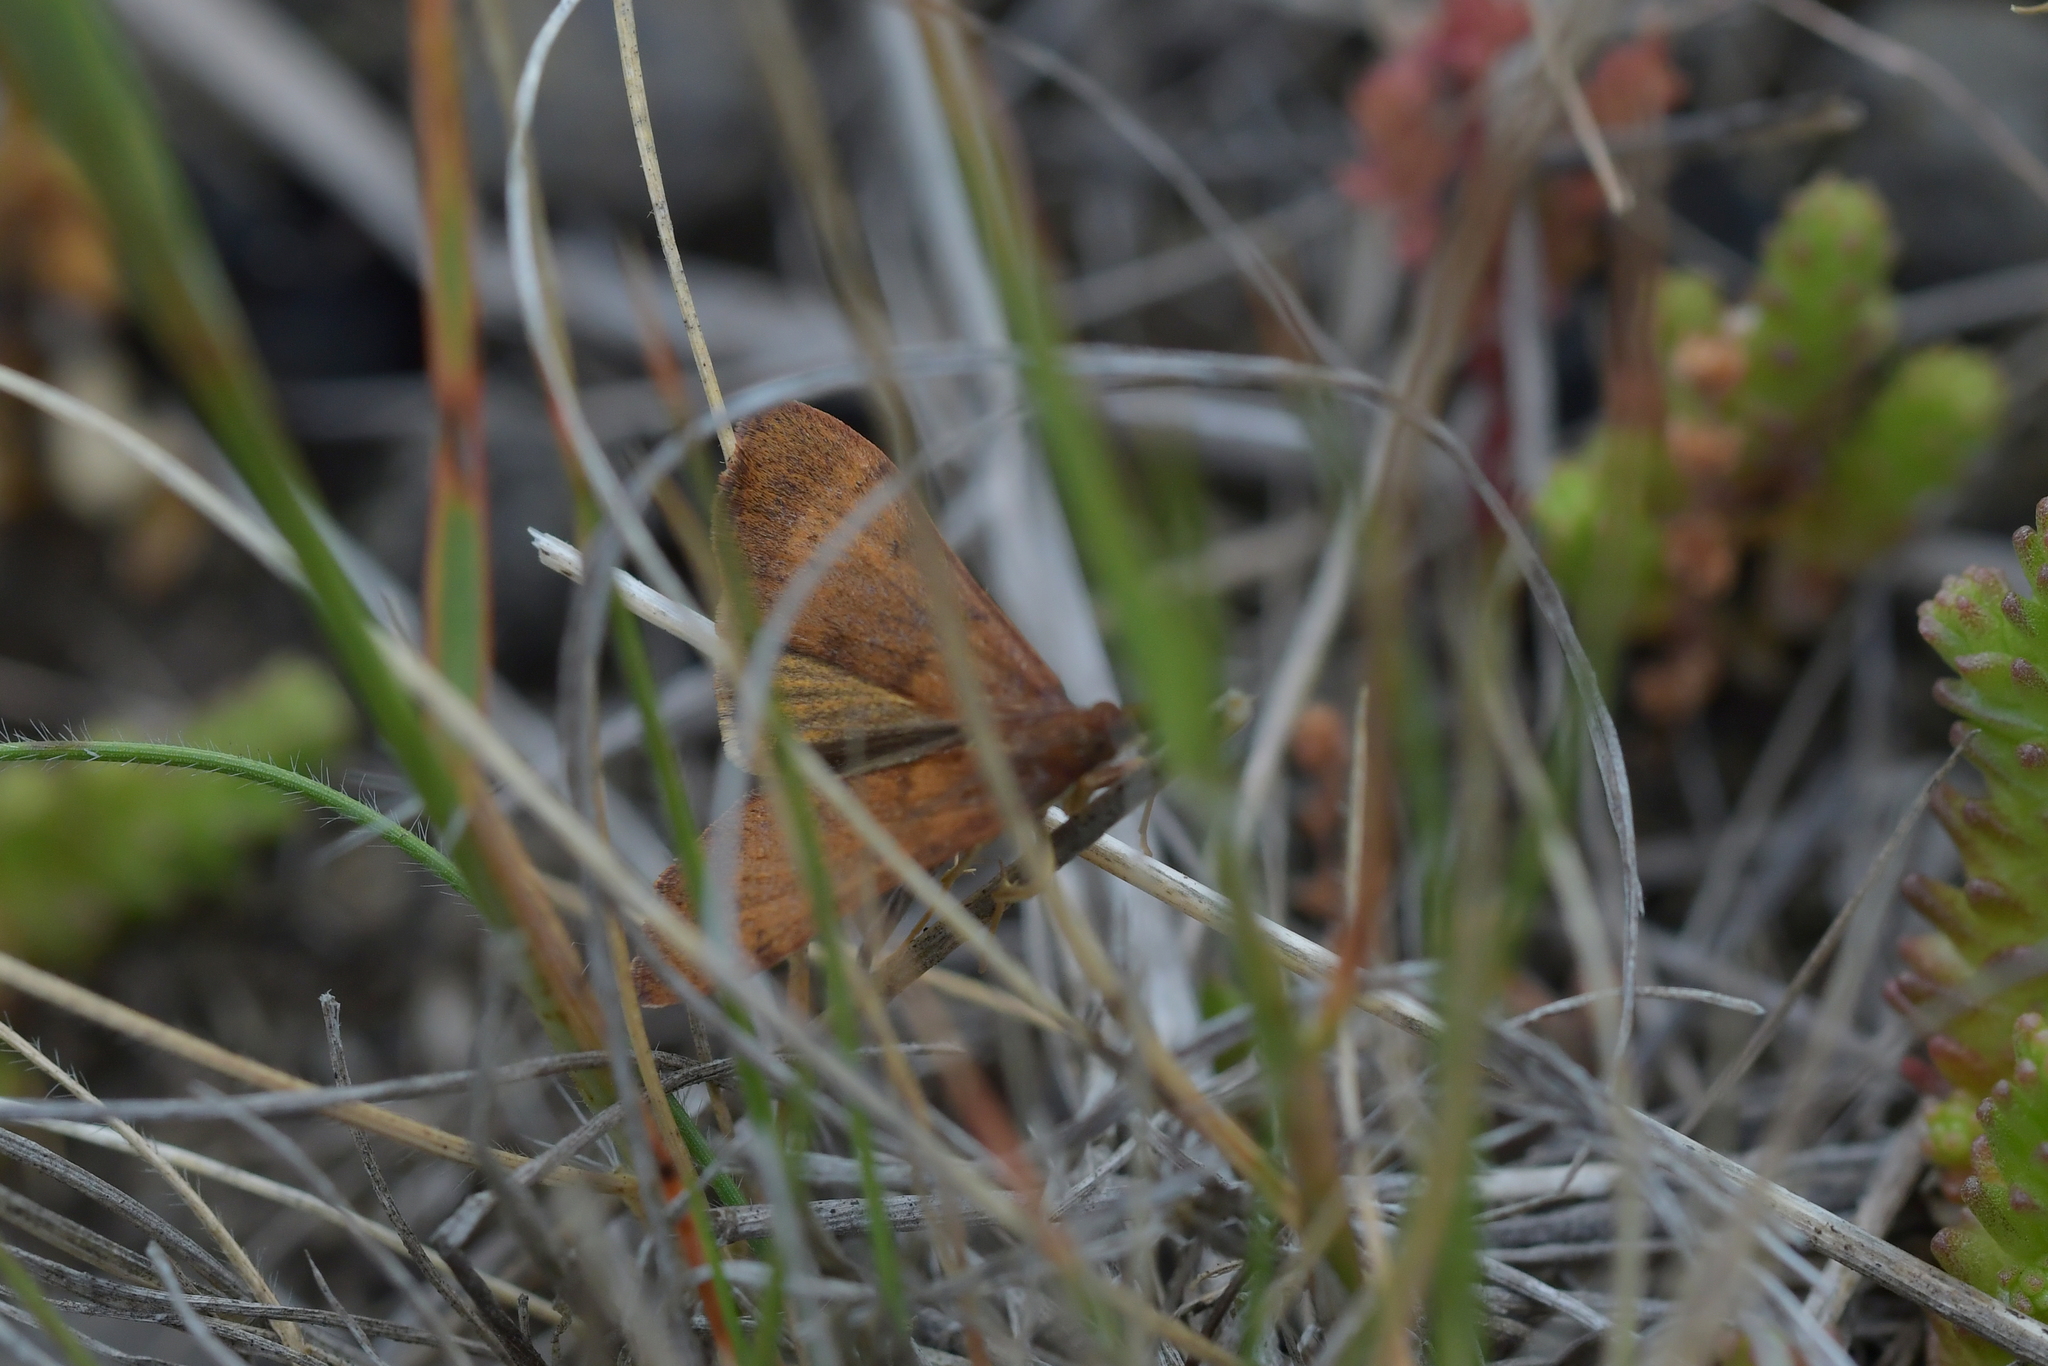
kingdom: Animalia
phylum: Arthropoda
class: Insecta
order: Lepidoptera
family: Crambidae
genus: Uresiphita
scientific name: Uresiphita
